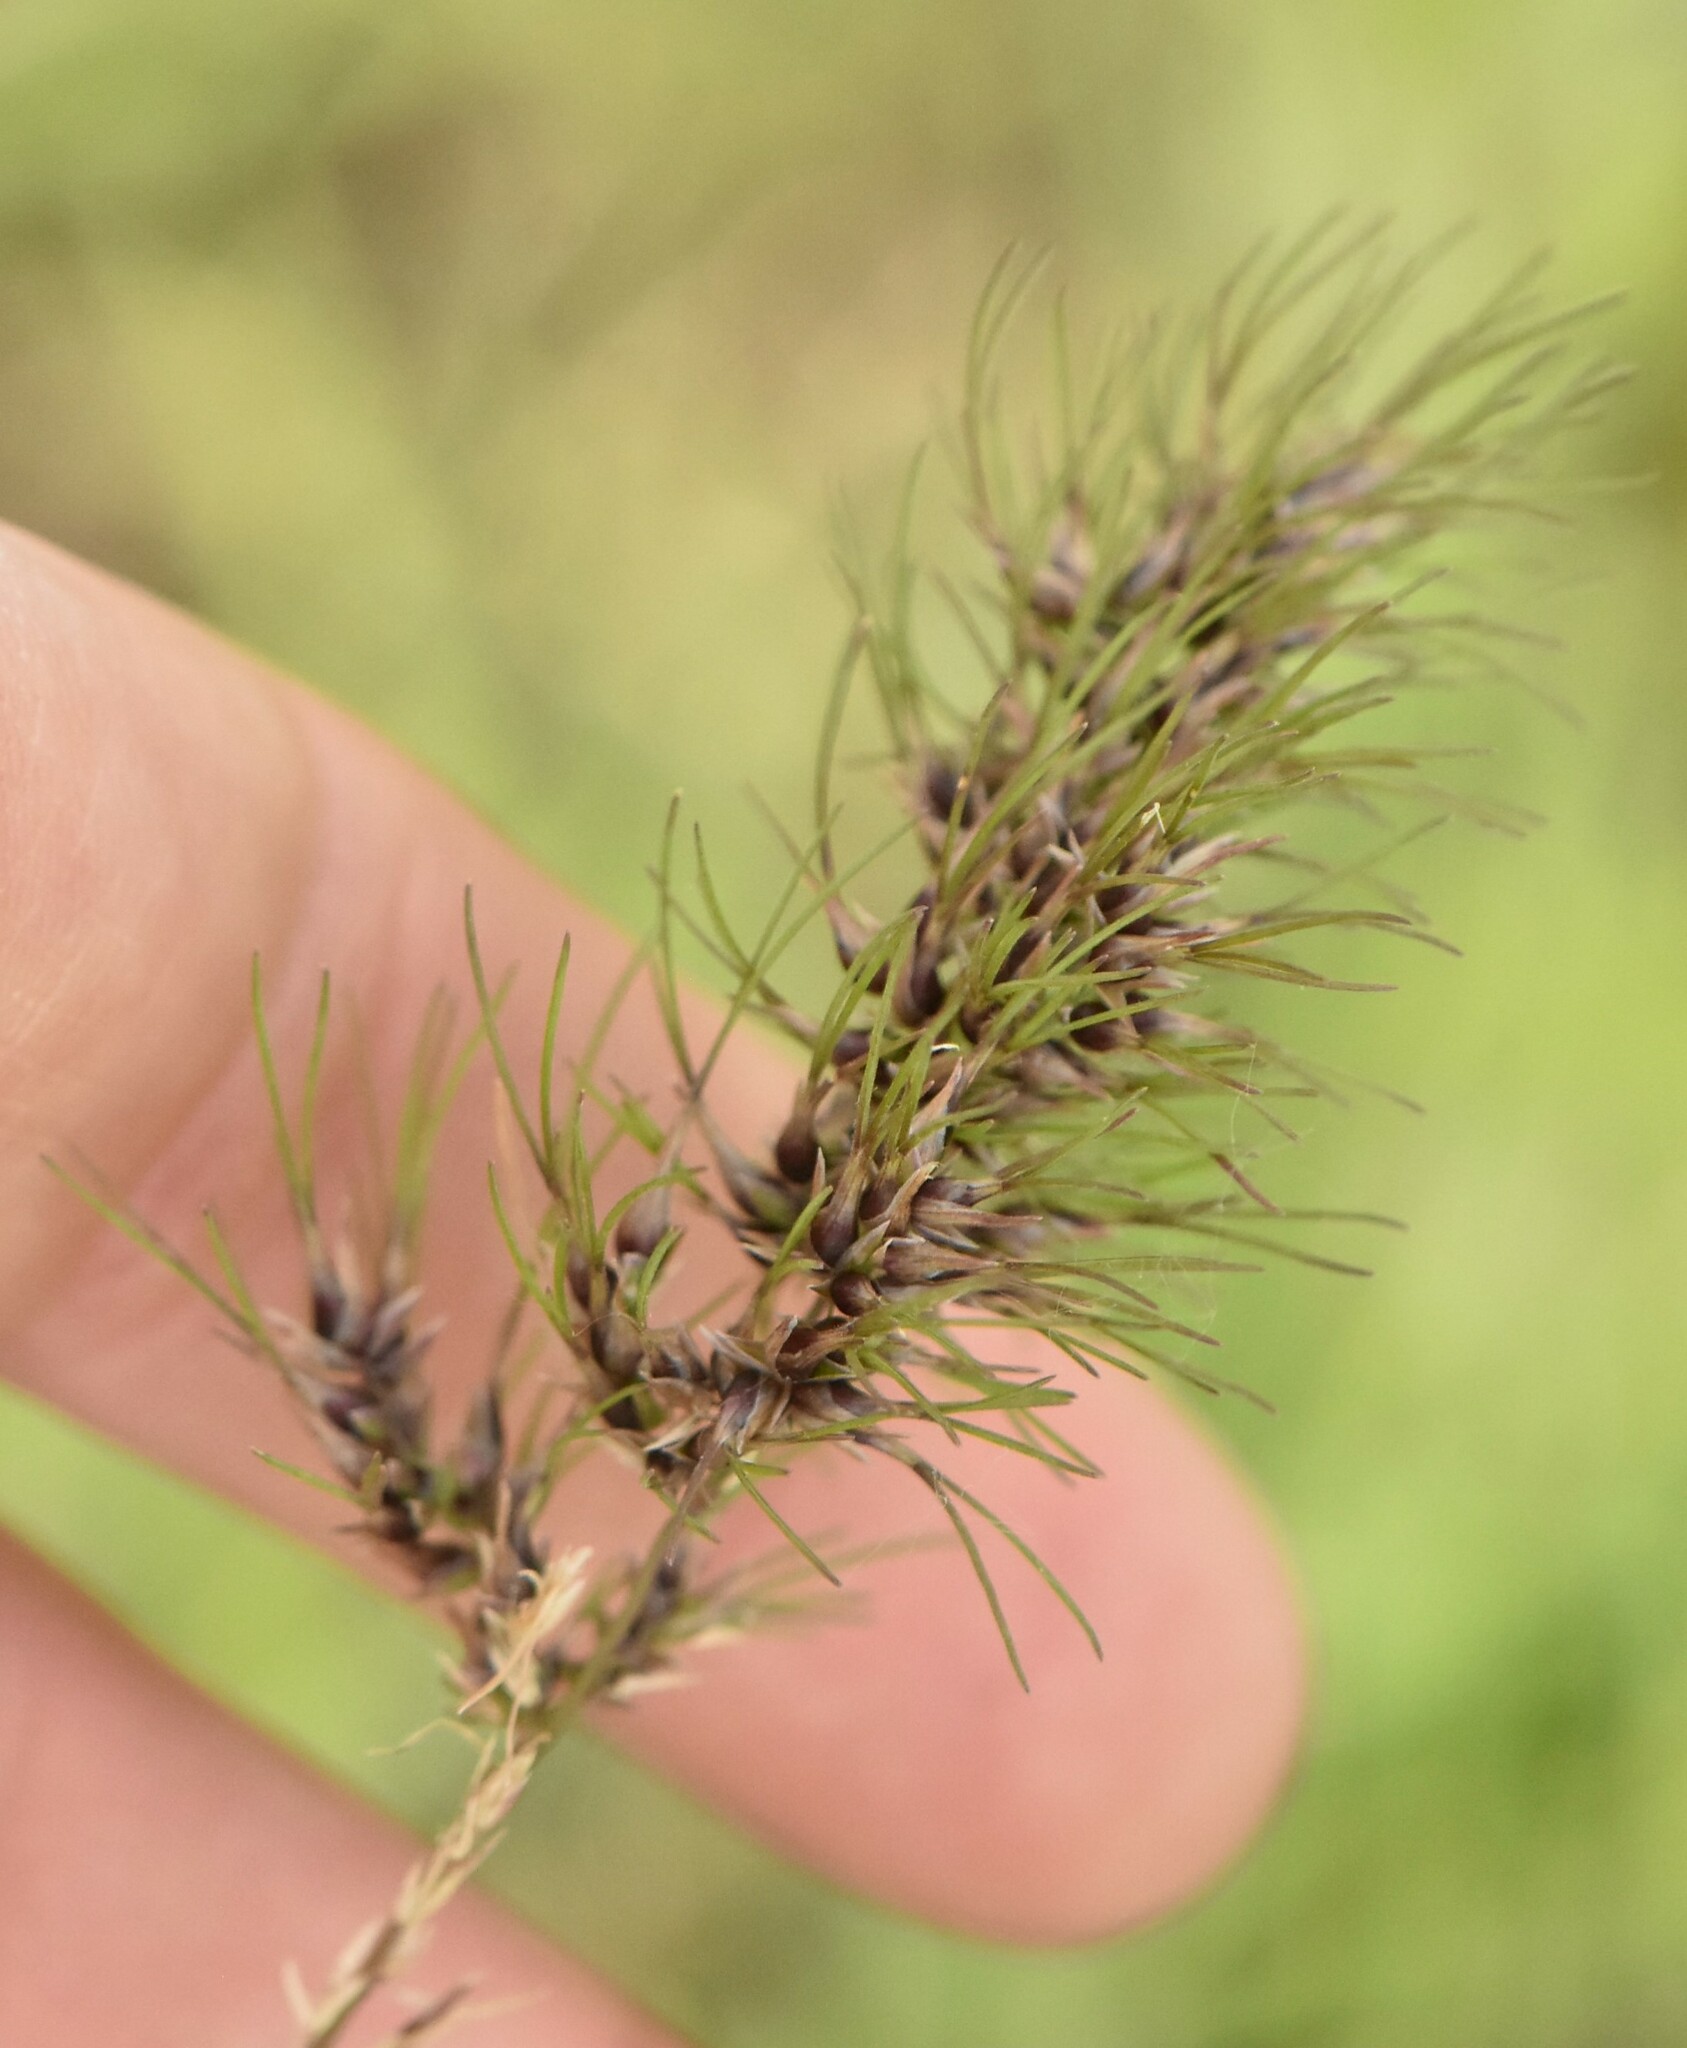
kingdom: Plantae
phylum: Tracheophyta
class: Liliopsida
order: Poales
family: Poaceae
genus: Poa
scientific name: Poa bulbosa
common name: Bulbous bluegrass
